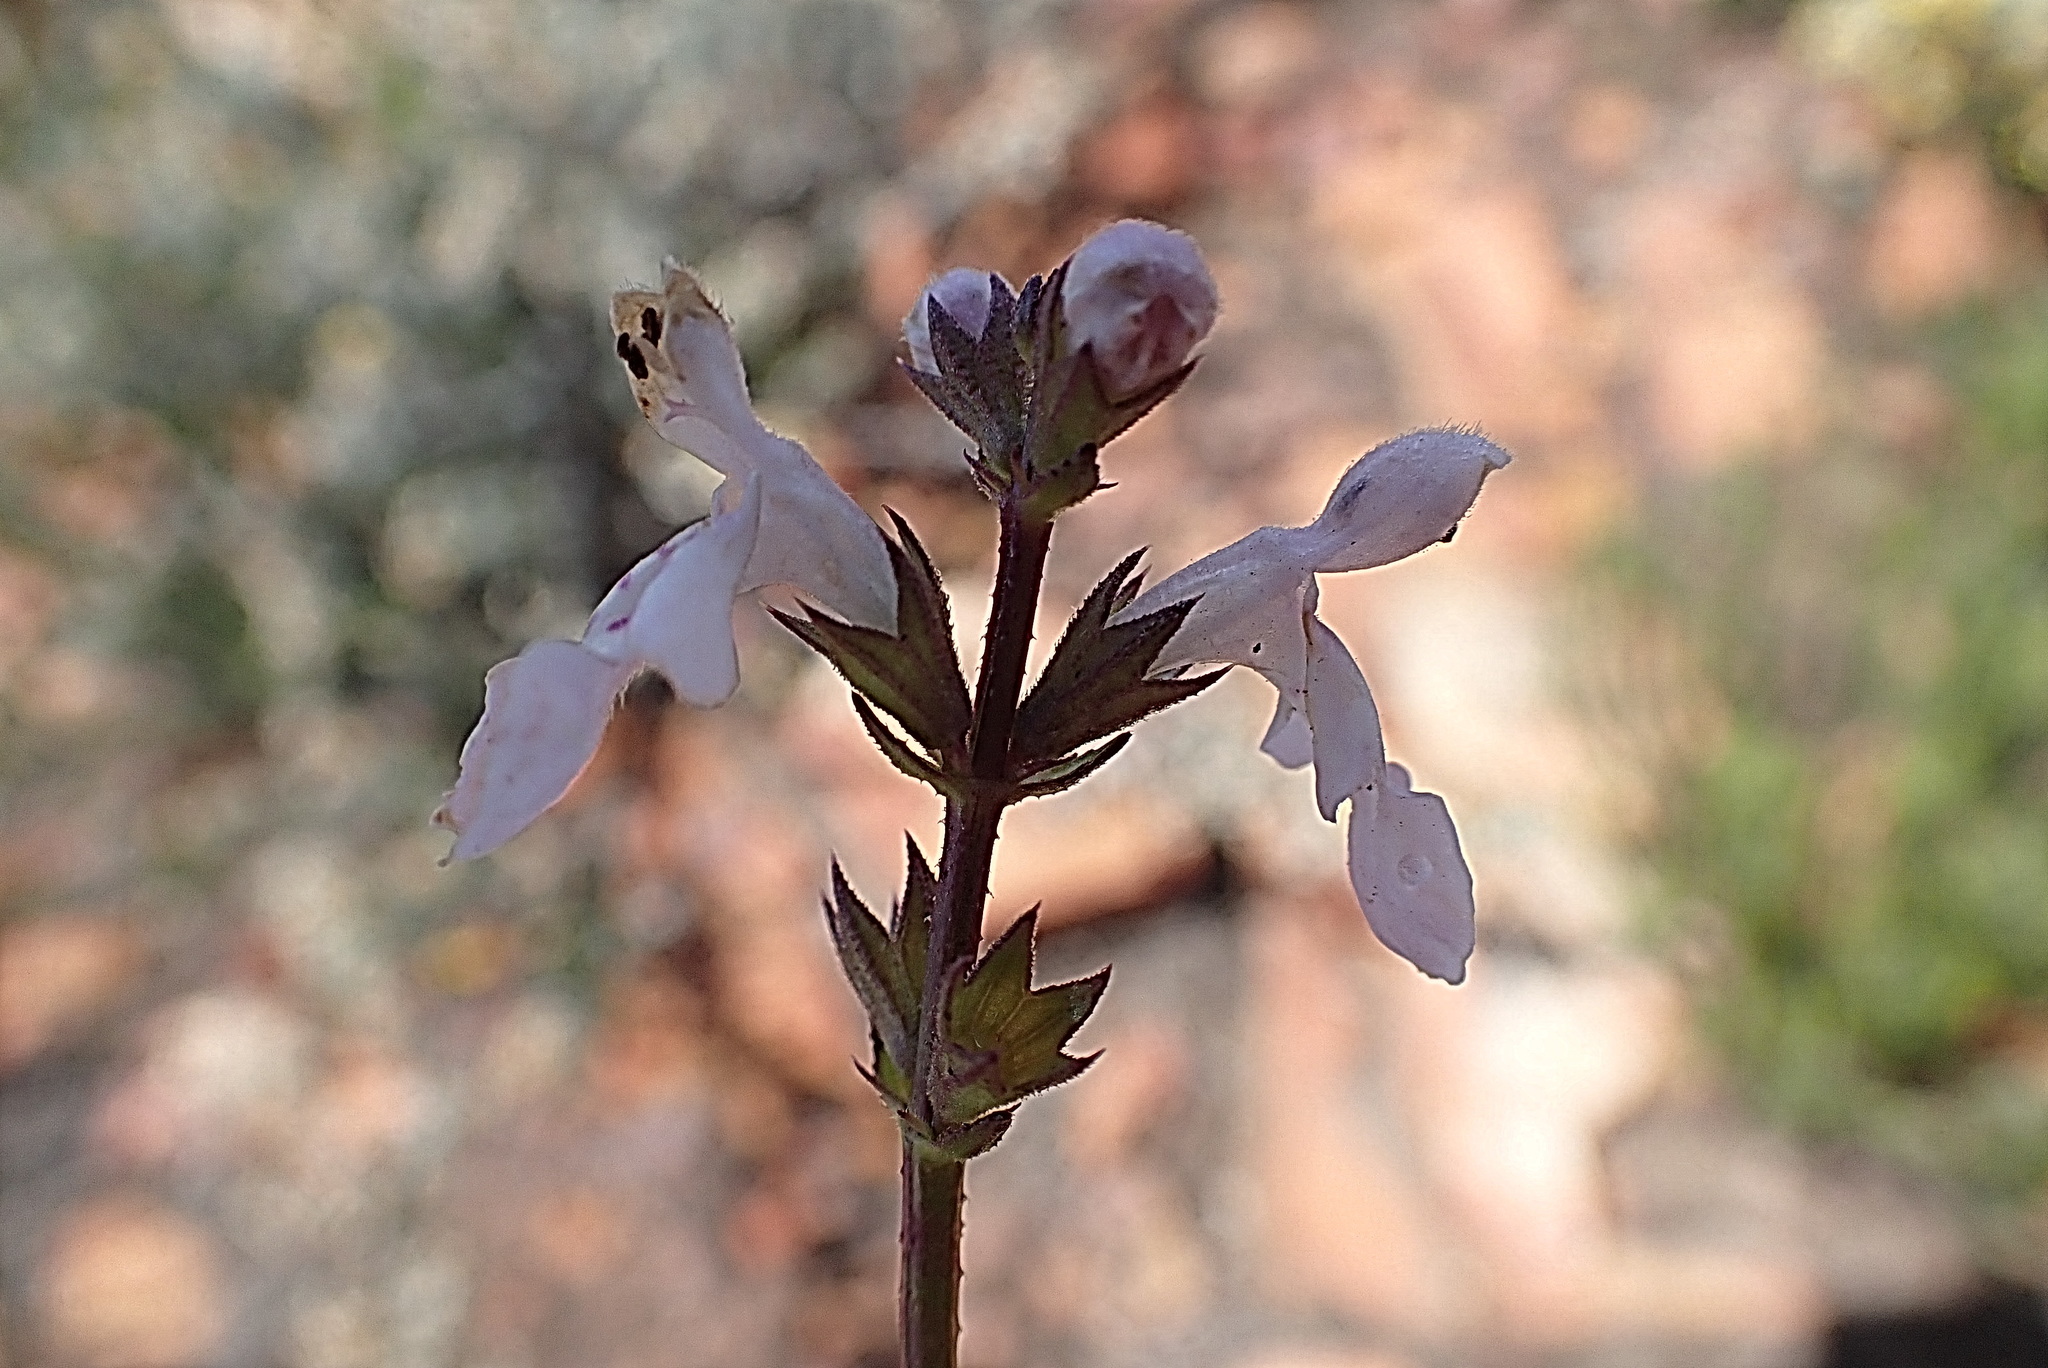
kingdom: Plantae
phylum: Tracheophyta
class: Magnoliopsida
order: Lamiales
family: Lamiaceae
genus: Stachys
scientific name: Stachys aethiopica
